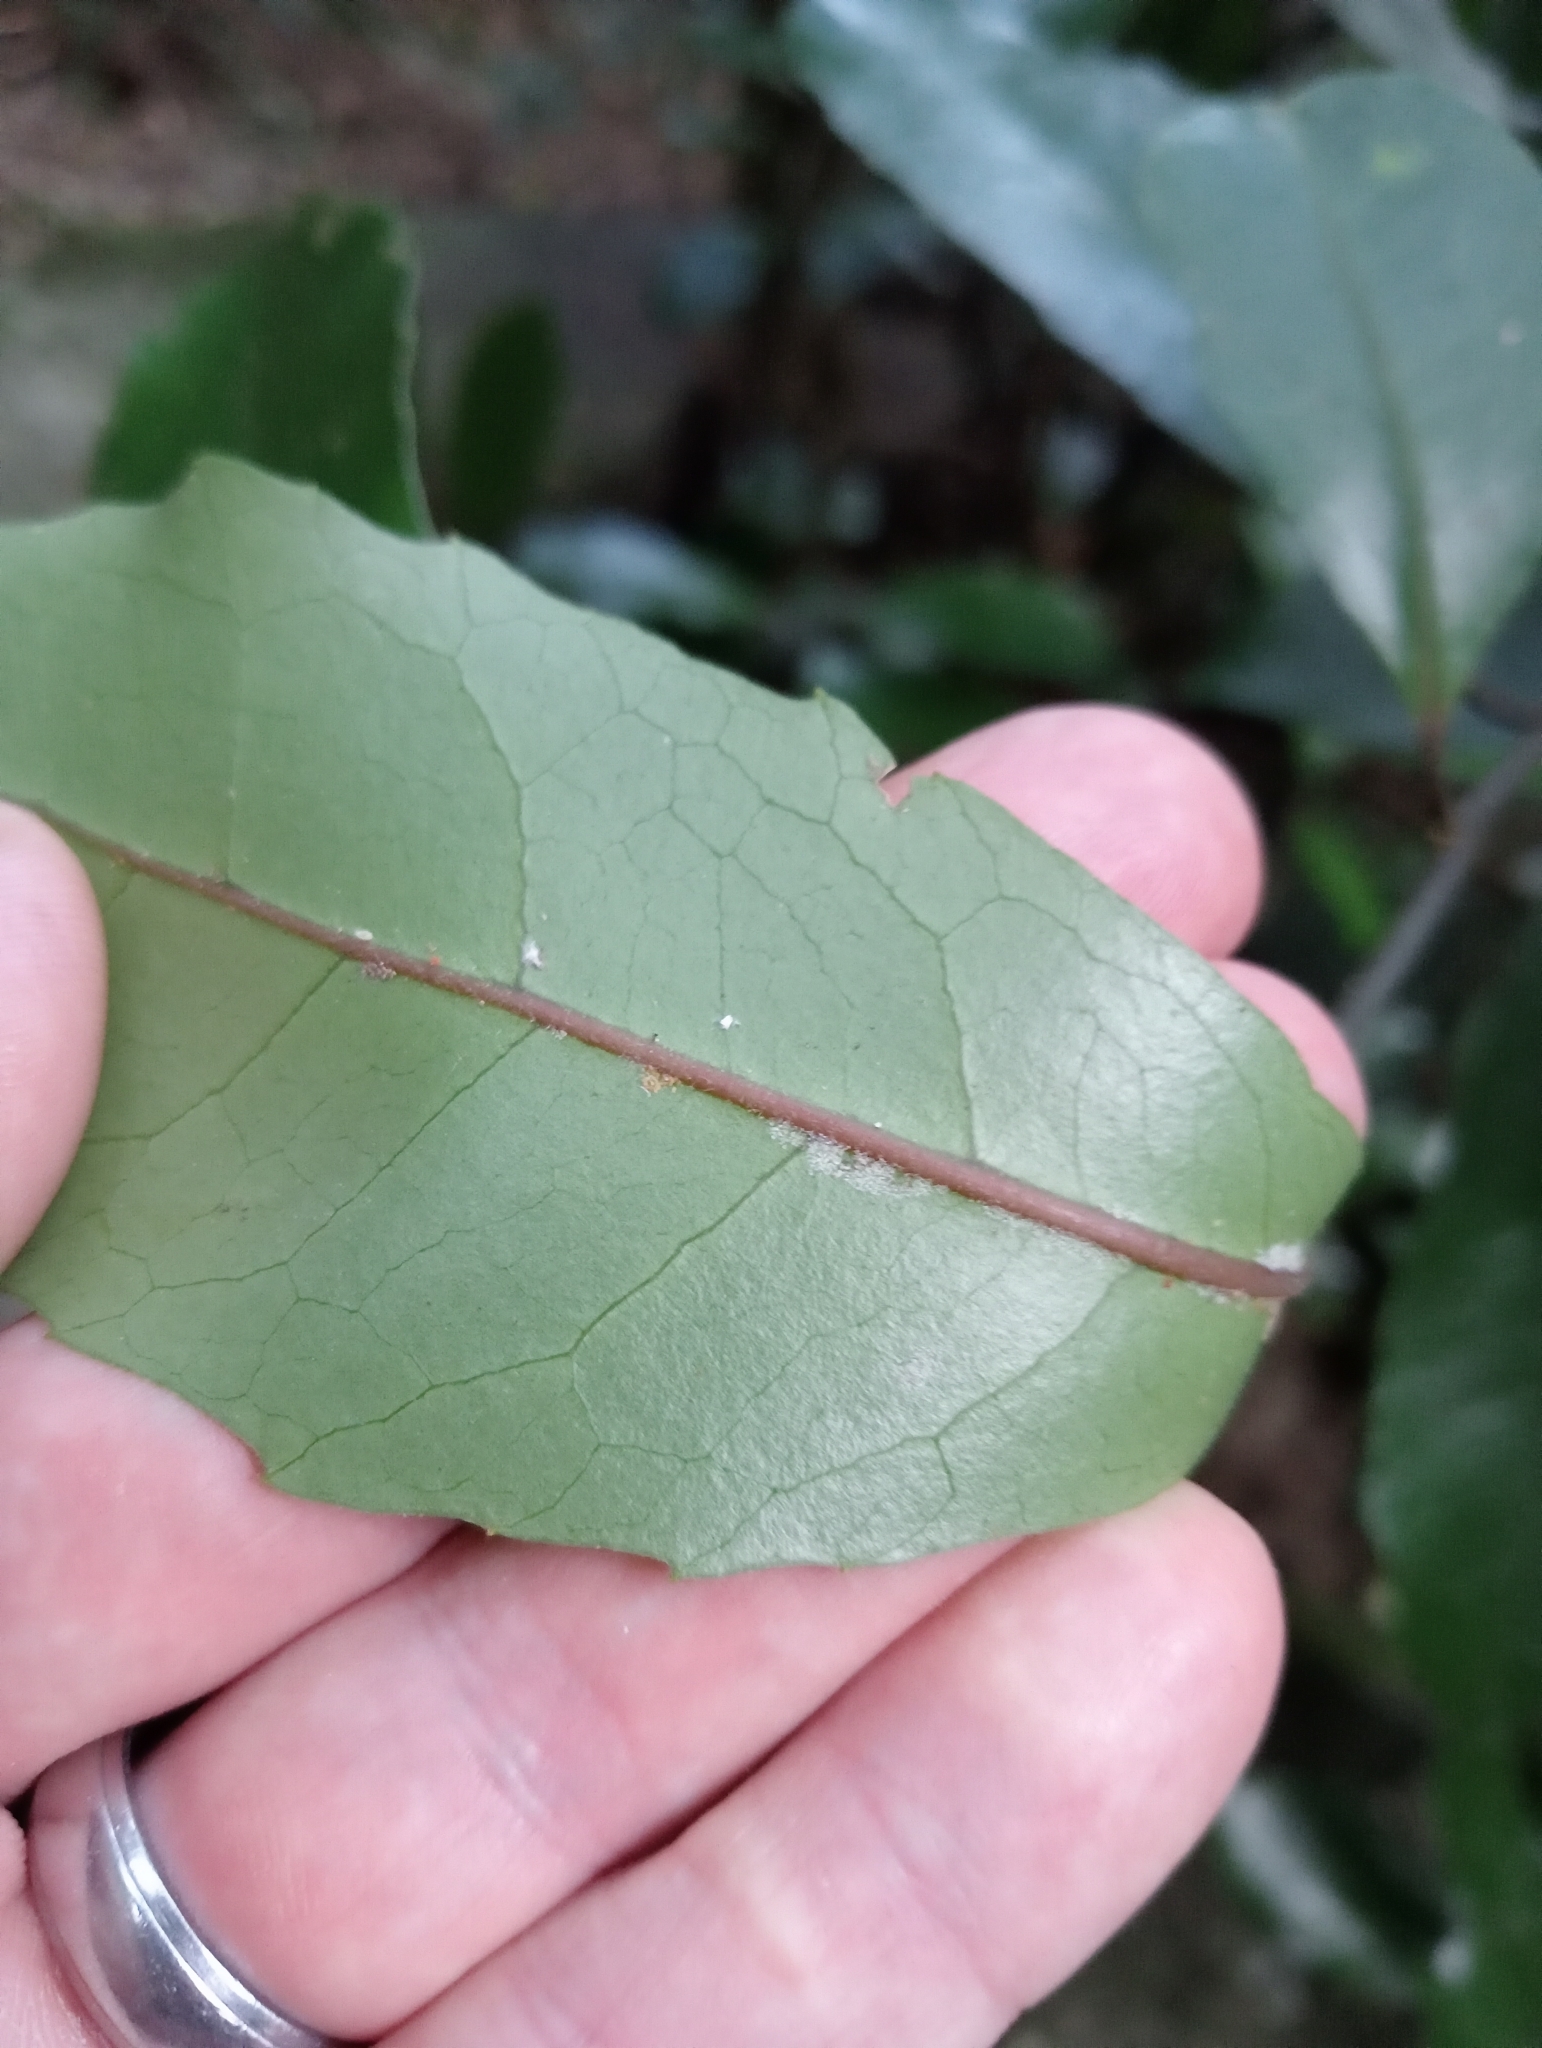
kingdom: Plantae
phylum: Tracheophyta
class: Magnoliopsida
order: Laurales
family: Monimiaceae
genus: Hedycarya
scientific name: Hedycarya arborea
